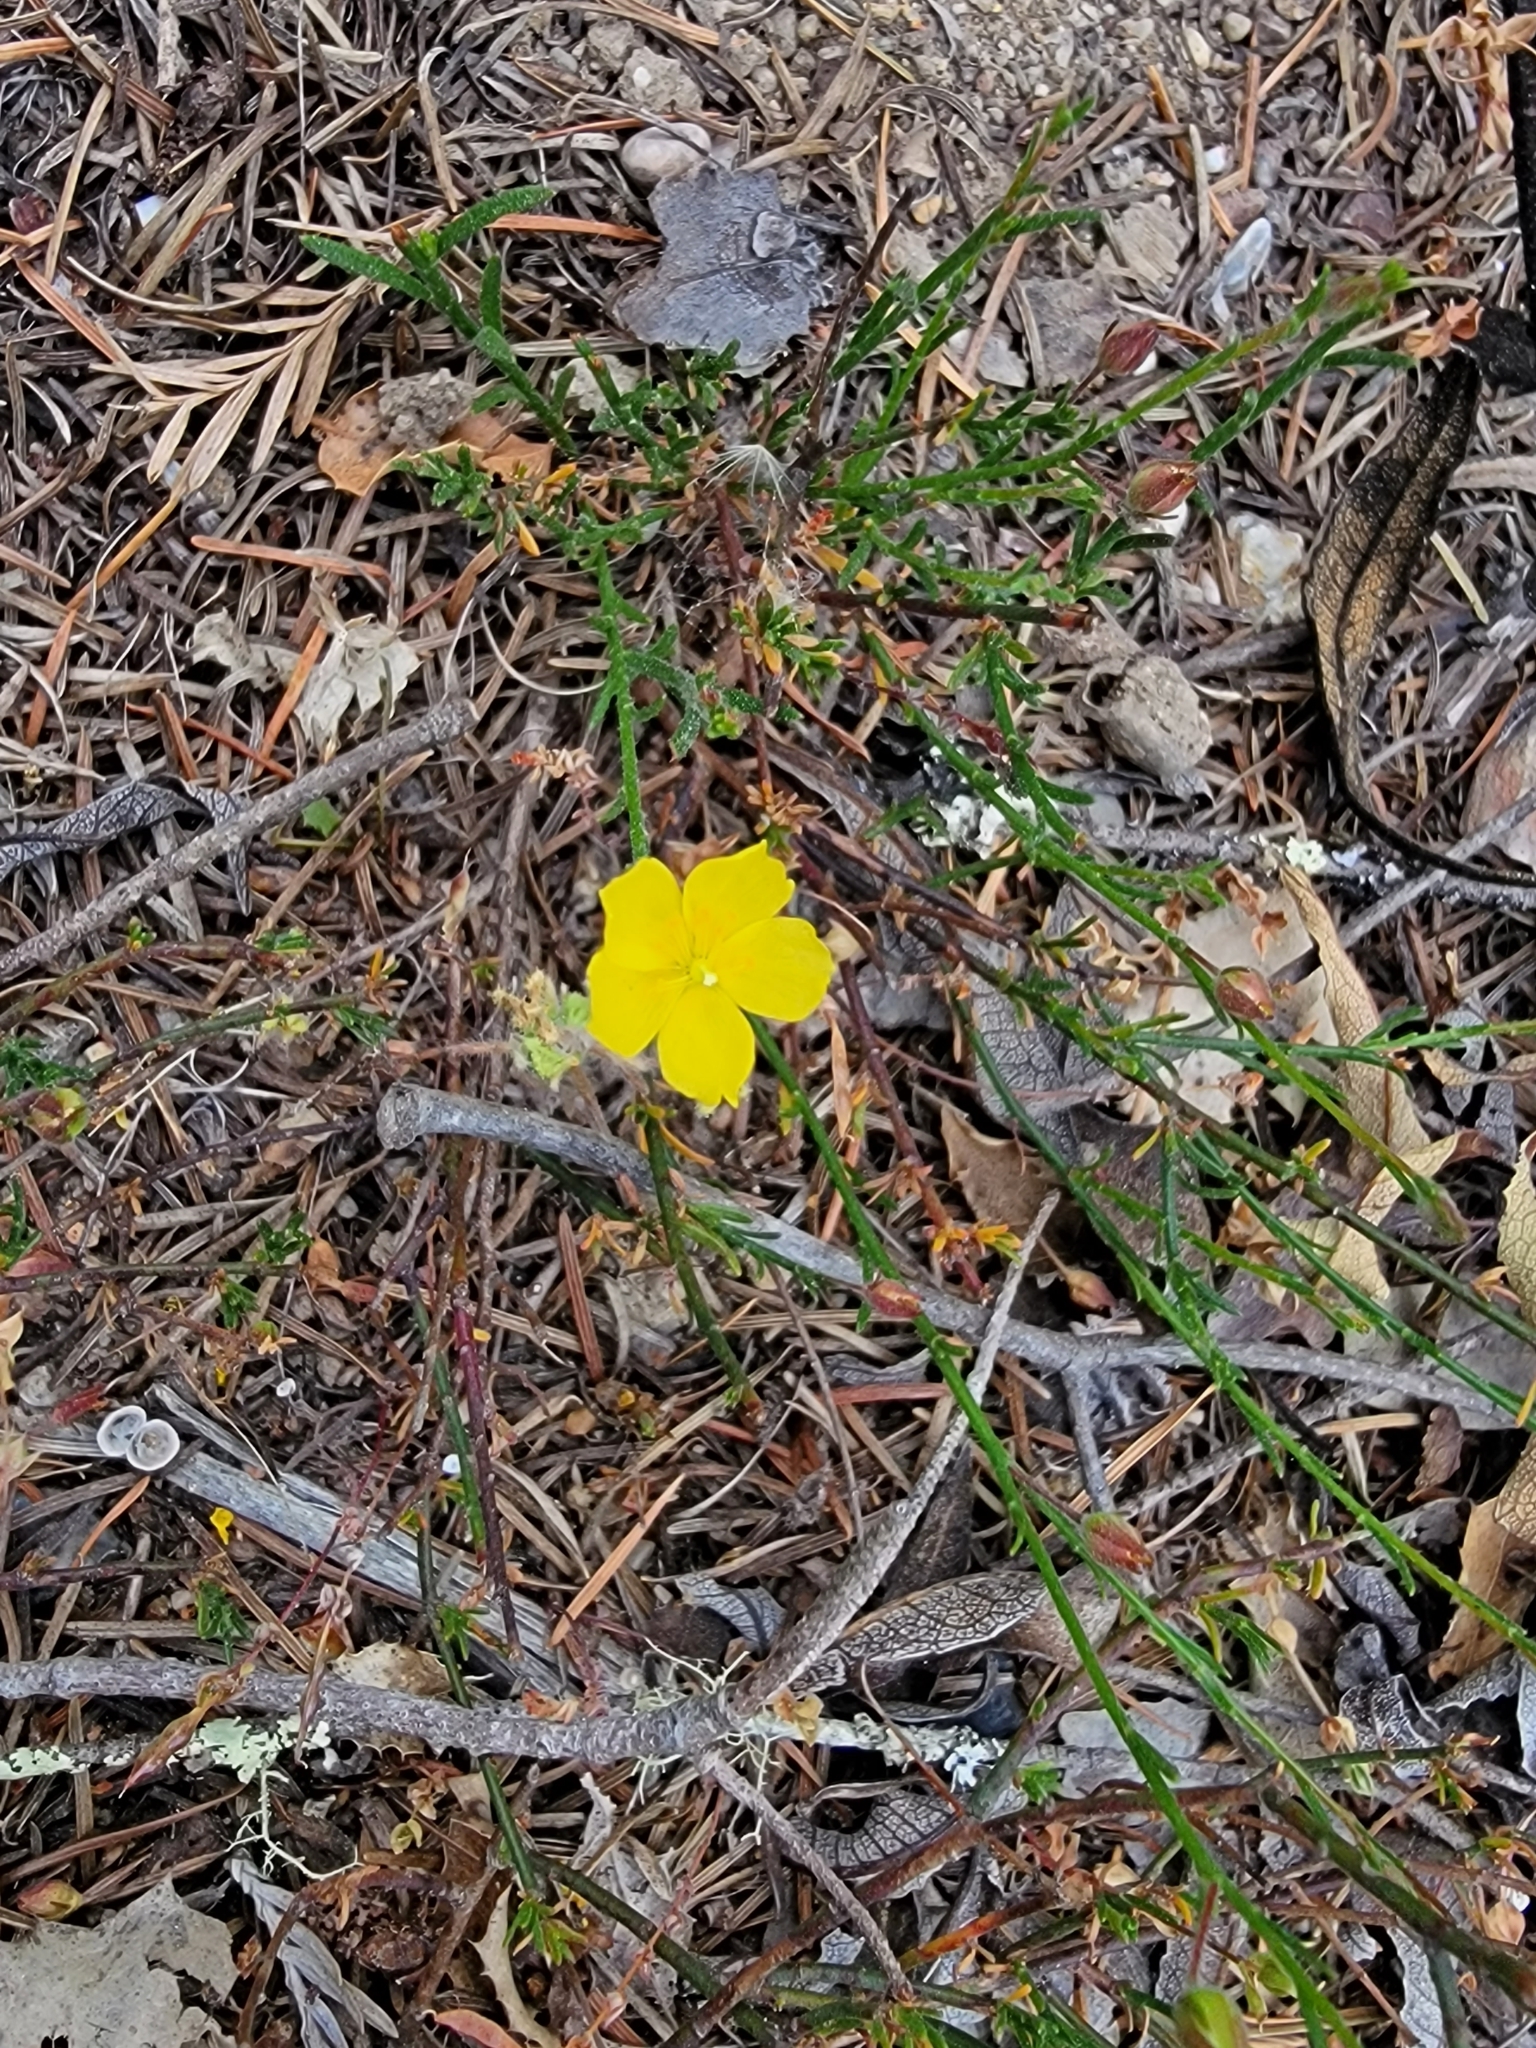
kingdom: Plantae
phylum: Tracheophyta
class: Magnoliopsida
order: Malvales
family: Cistaceae
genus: Crocanthemum
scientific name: Crocanthemum scoparium
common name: Broom-rose
